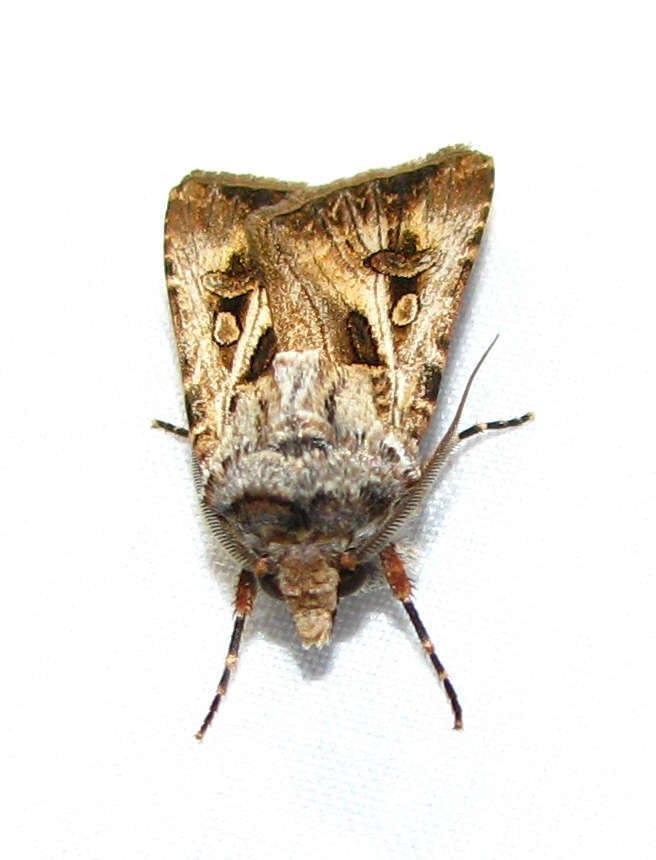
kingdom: Animalia
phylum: Arthropoda
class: Insecta
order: Lepidoptera
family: Noctuidae
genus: Agrotis
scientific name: Agrotis munda
